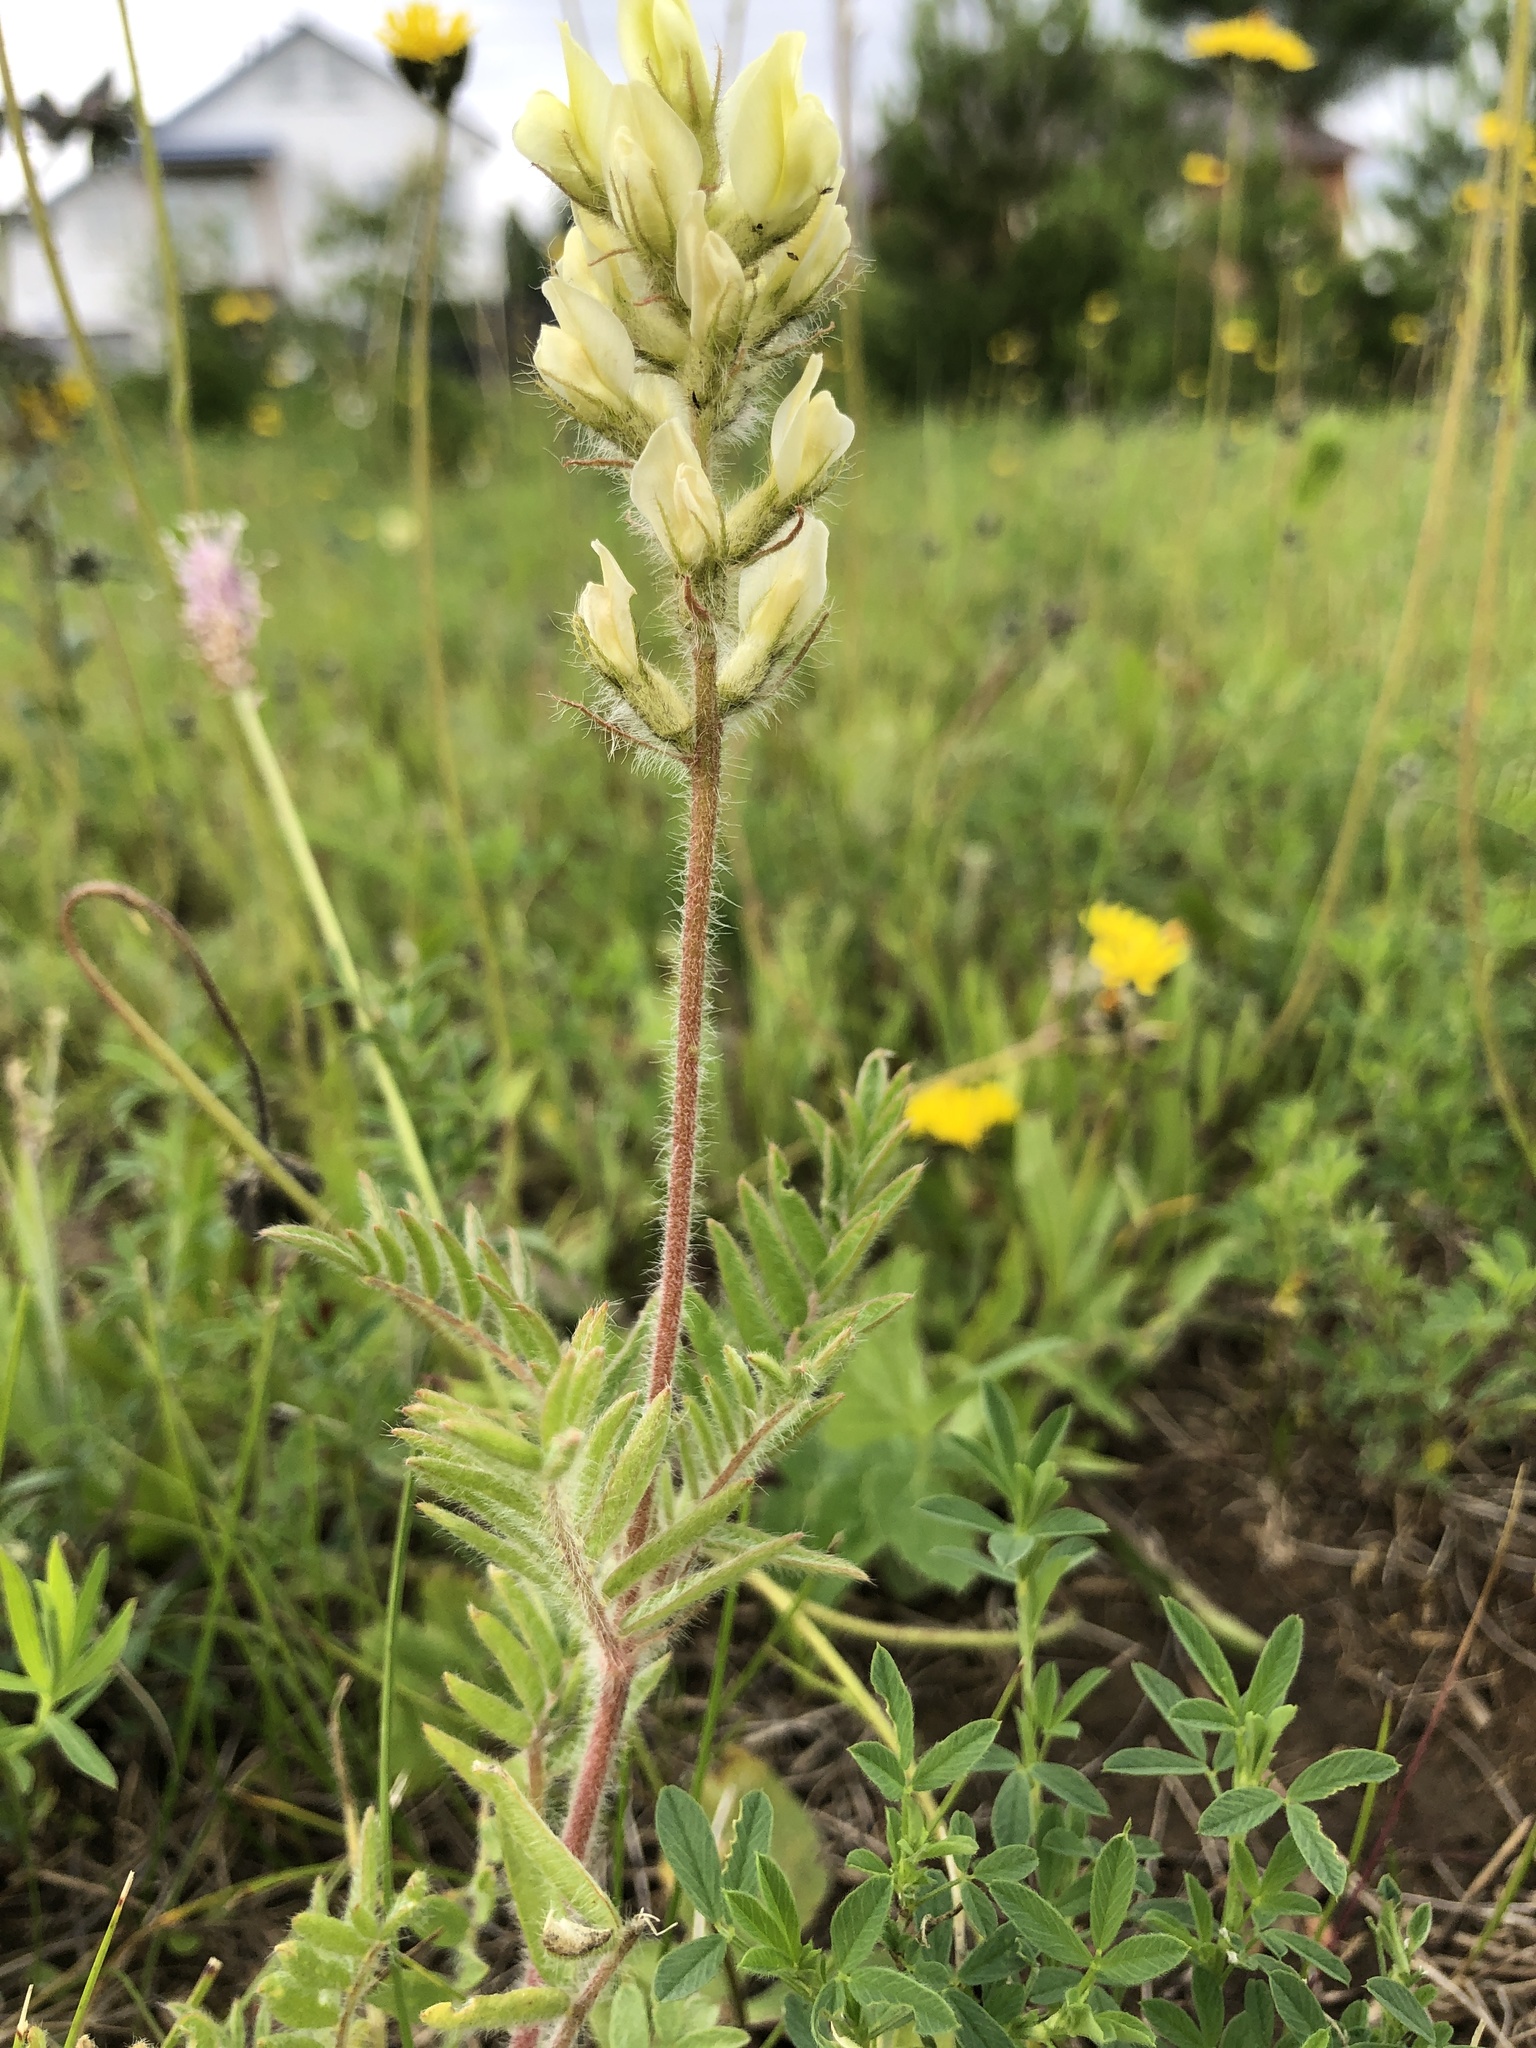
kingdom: Plantae
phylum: Tracheophyta
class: Magnoliopsida
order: Fabales
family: Fabaceae
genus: Oxytropis
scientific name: Oxytropis pilosa
